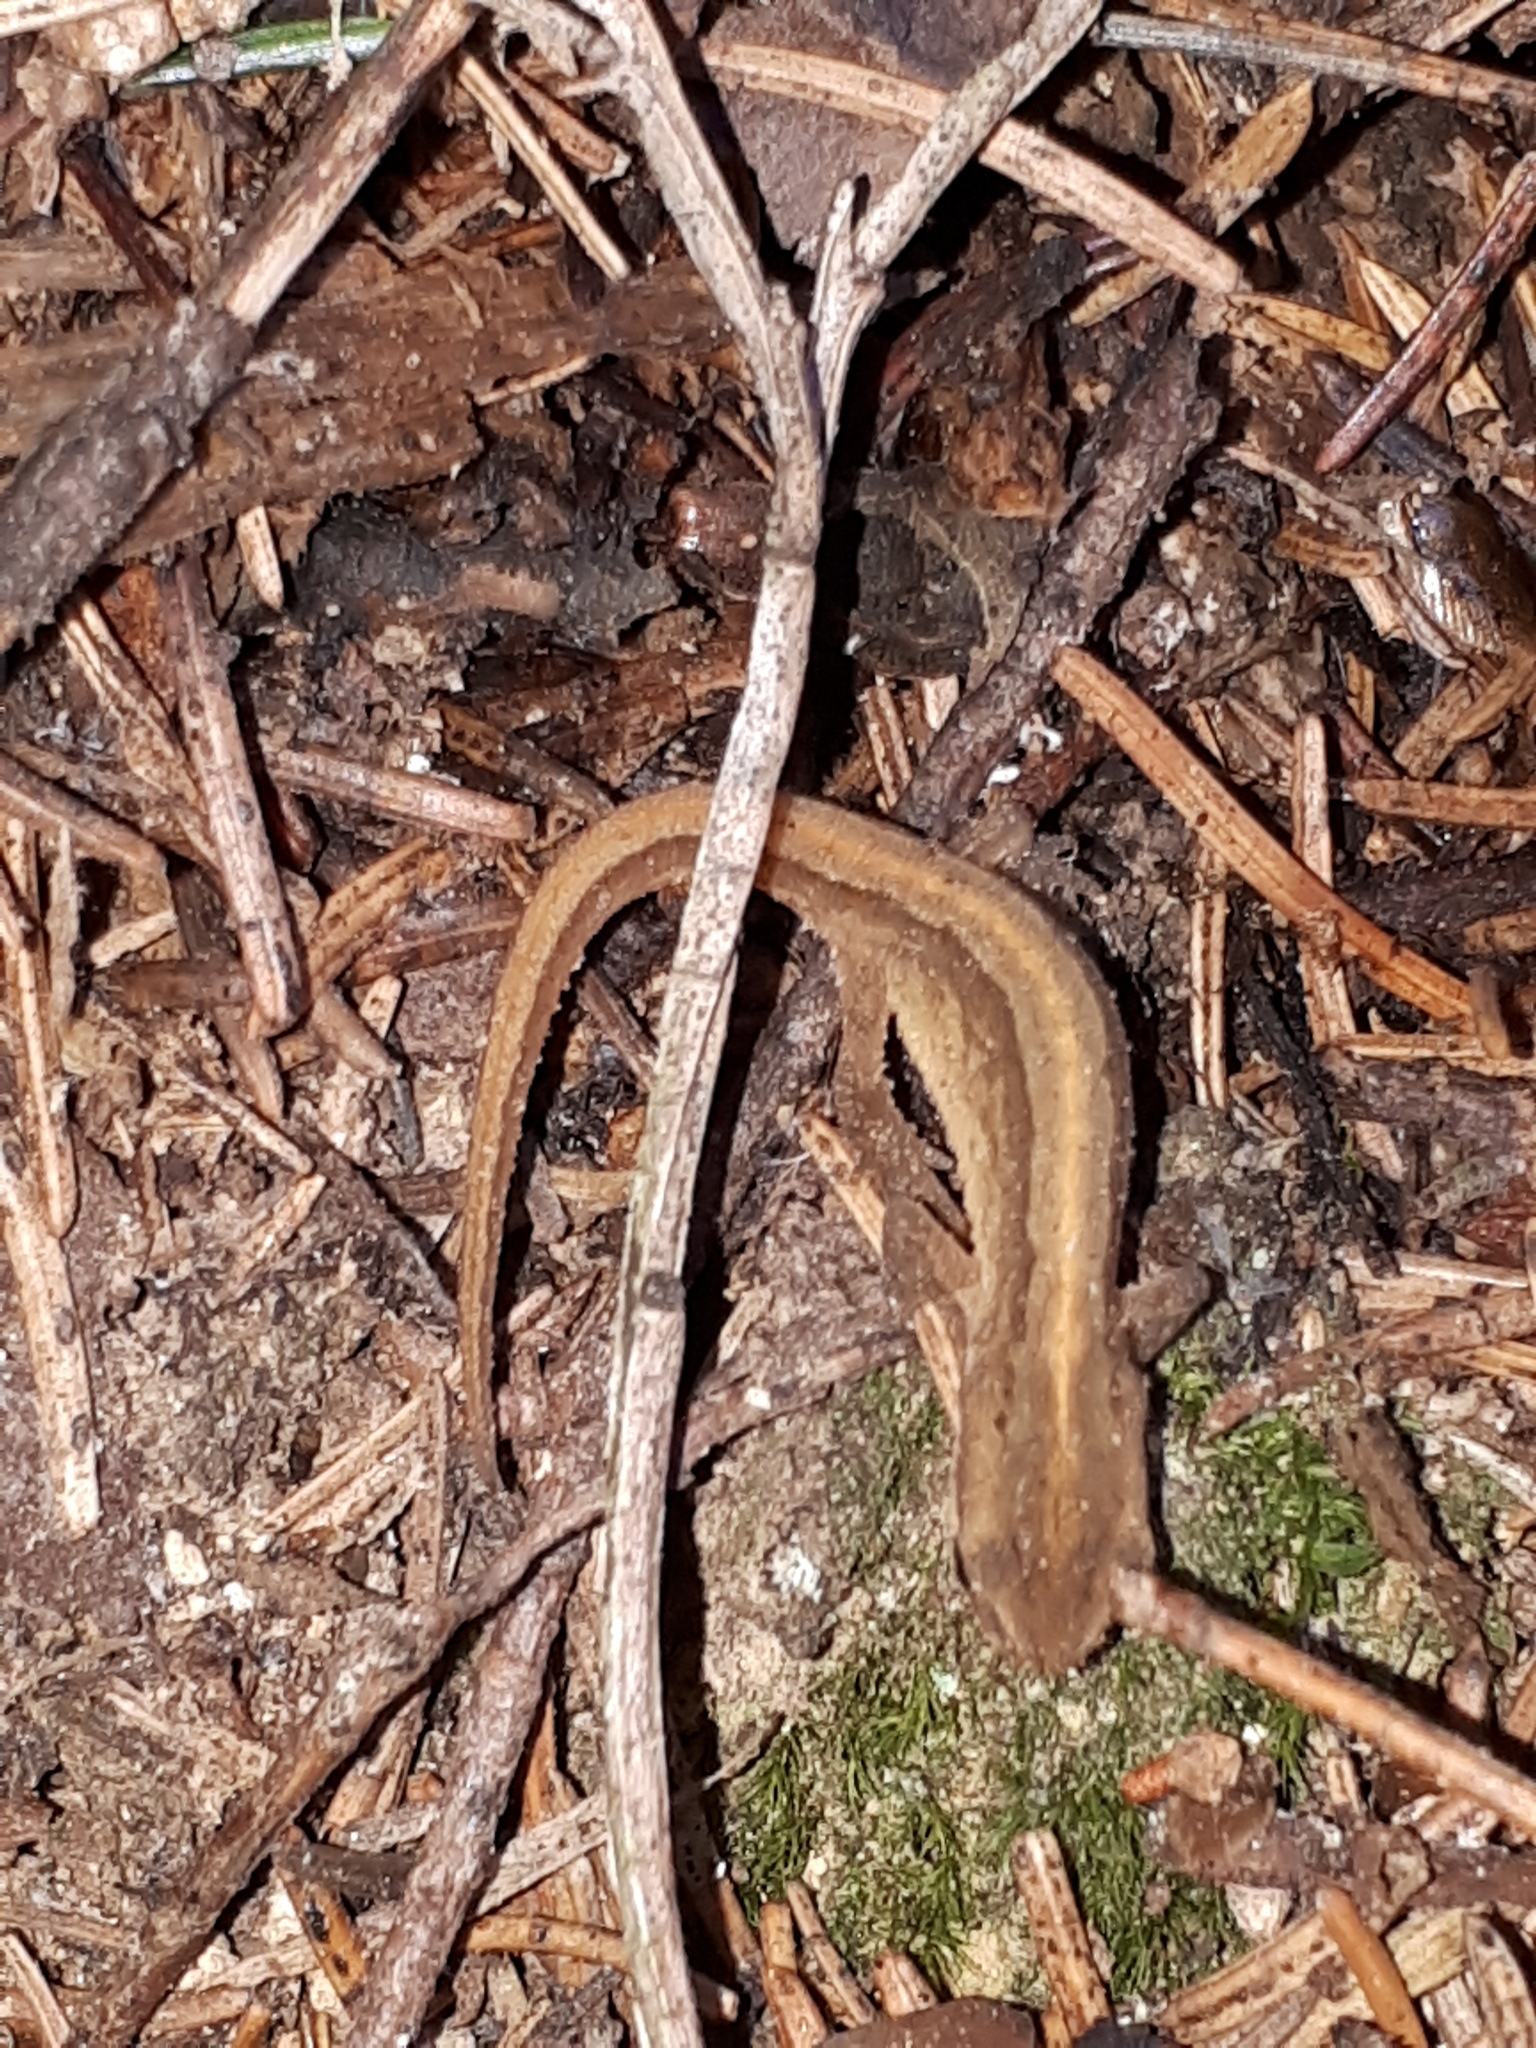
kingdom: Animalia
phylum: Chordata
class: Amphibia
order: Caudata
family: Salamandridae
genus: Lissotriton
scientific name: Lissotriton vulgaris
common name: Smooth newt
